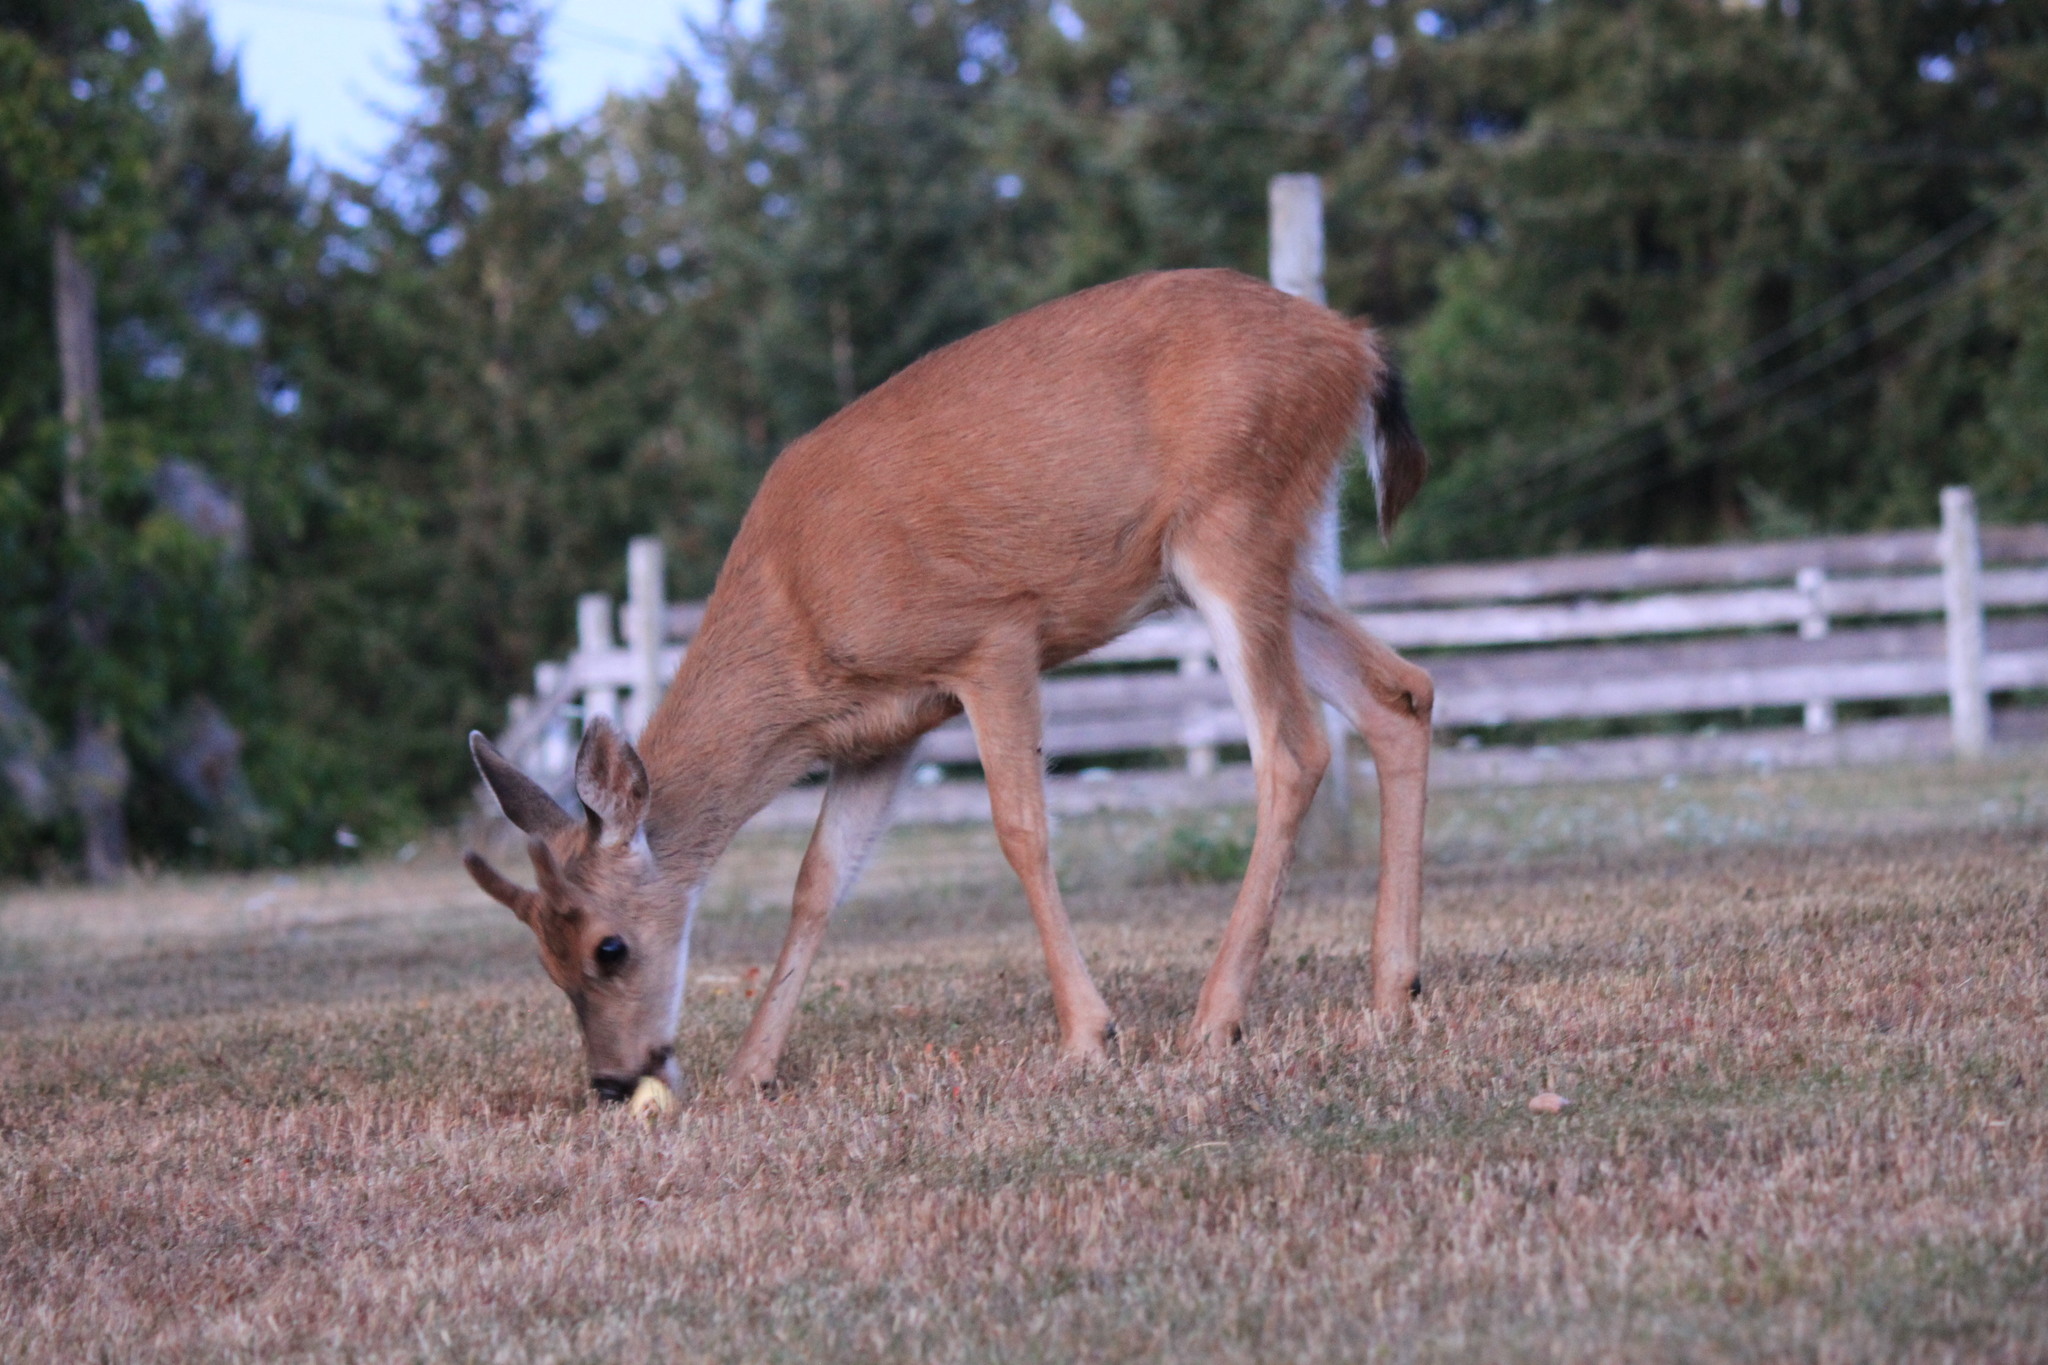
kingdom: Animalia
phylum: Chordata
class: Mammalia
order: Artiodactyla
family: Cervidae
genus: Odocoileus
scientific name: Odocoileus hemionus
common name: Mule deer
